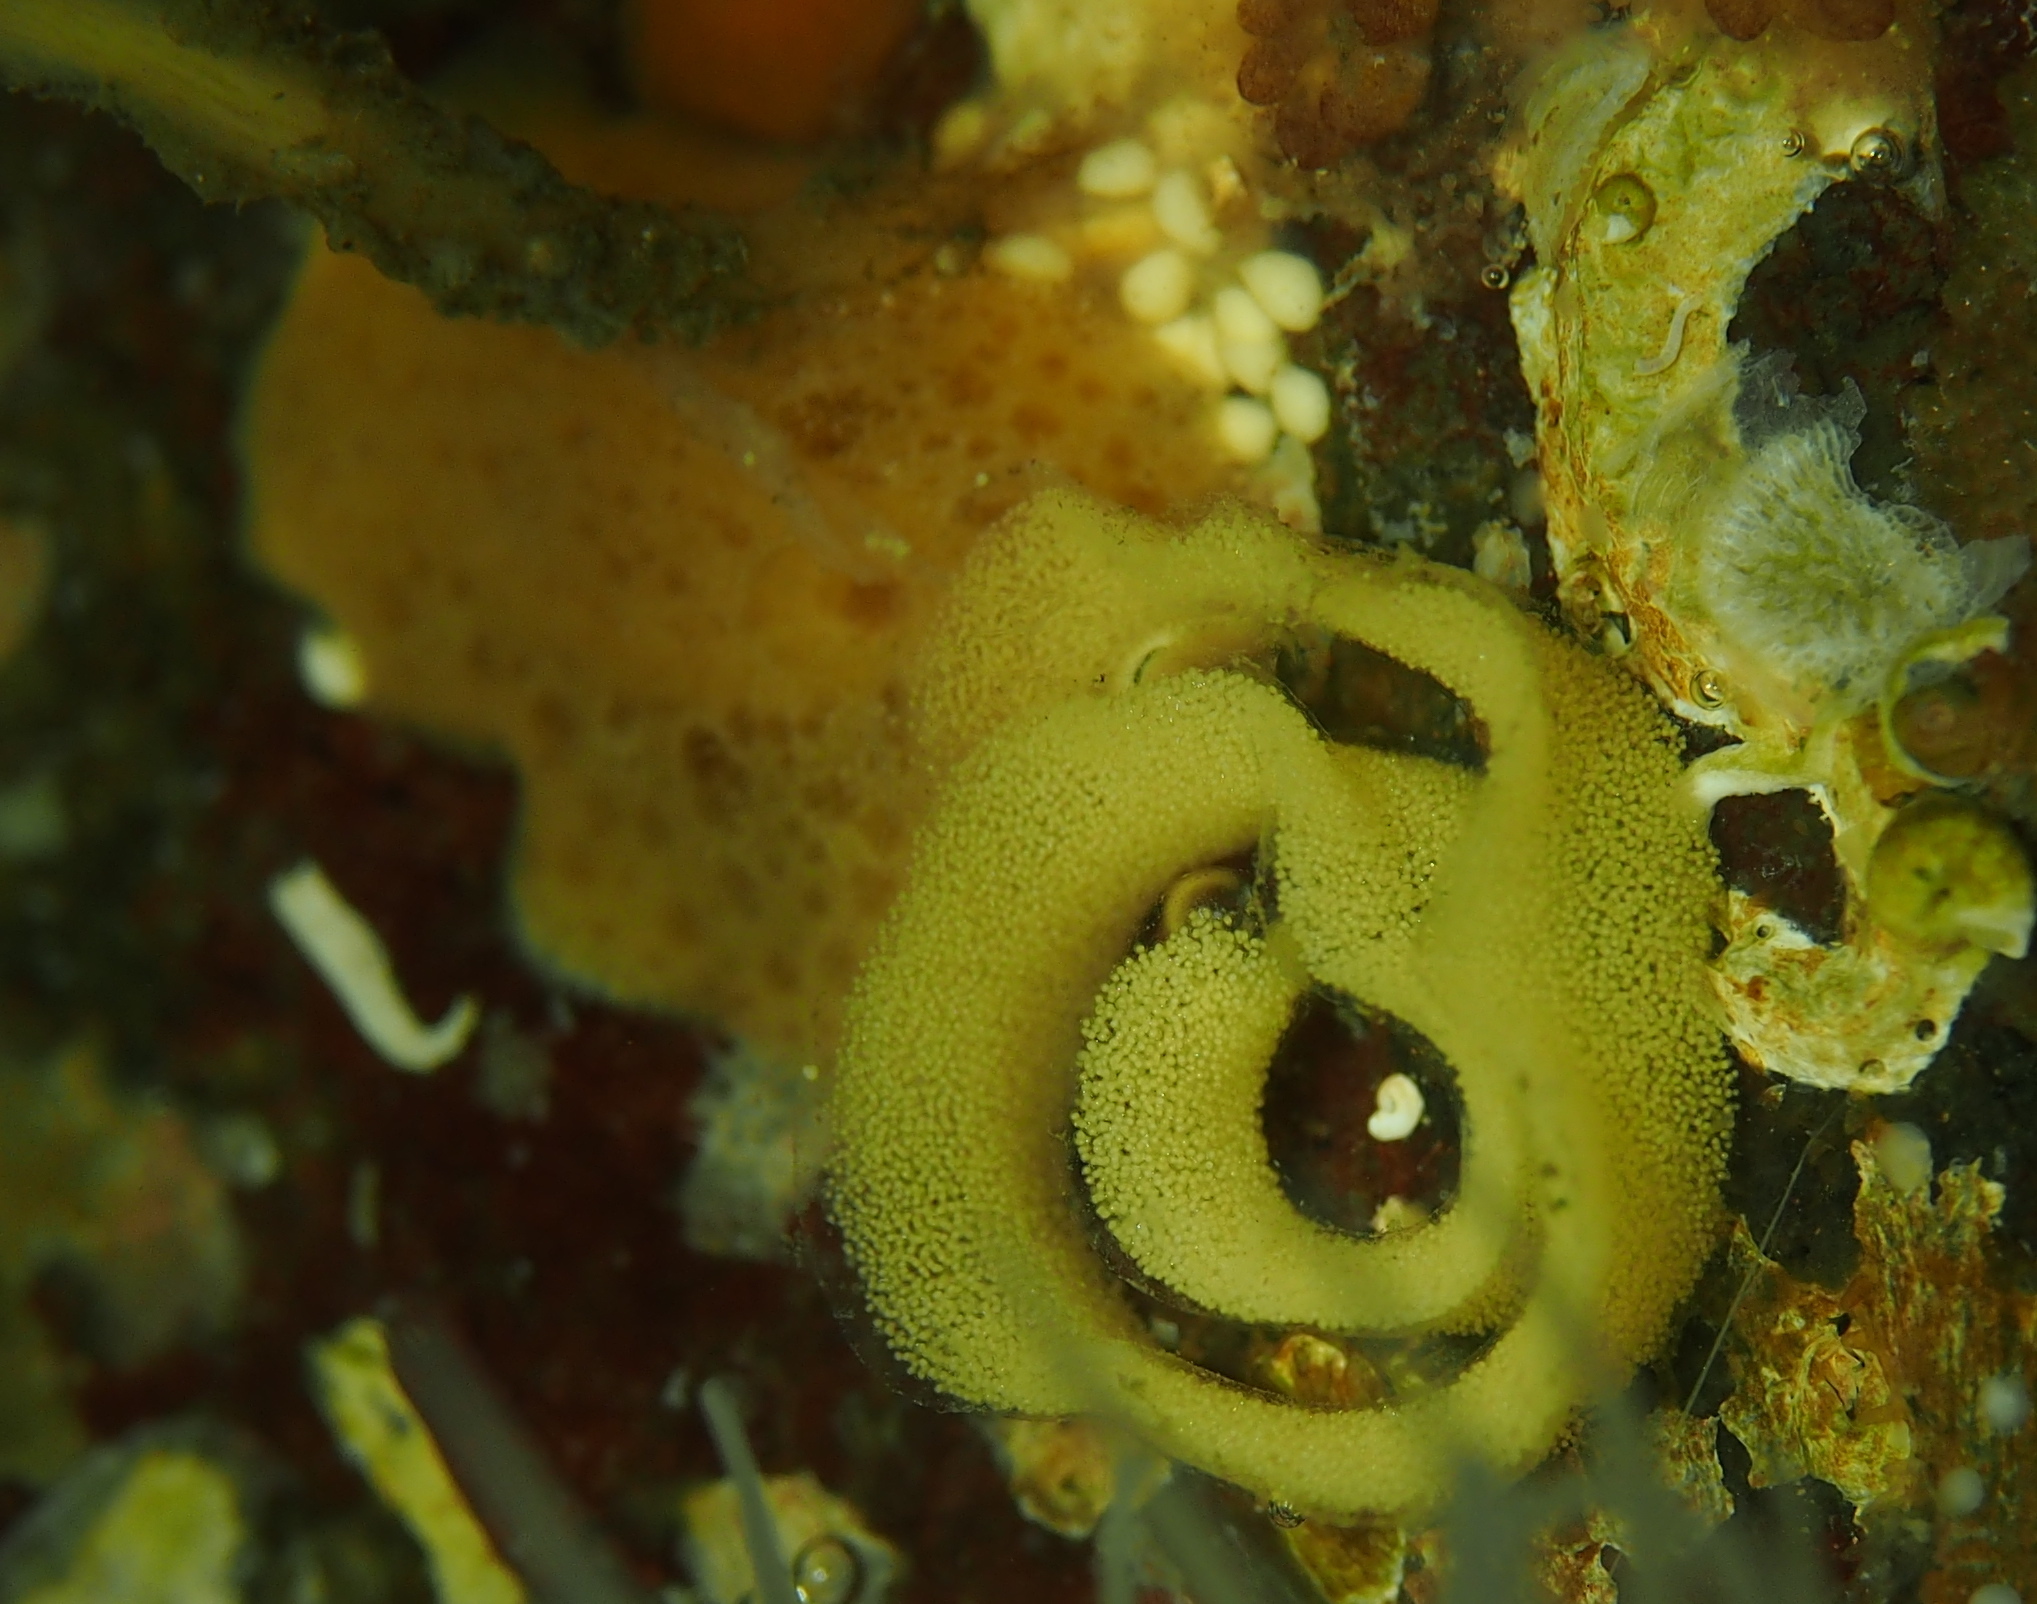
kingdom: Animalia
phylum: Mollusca
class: Gastropoda
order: Nudibranchia
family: Discodorididae
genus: Jorunna
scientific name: Jorunna tomentosa
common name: Grey sea slug
